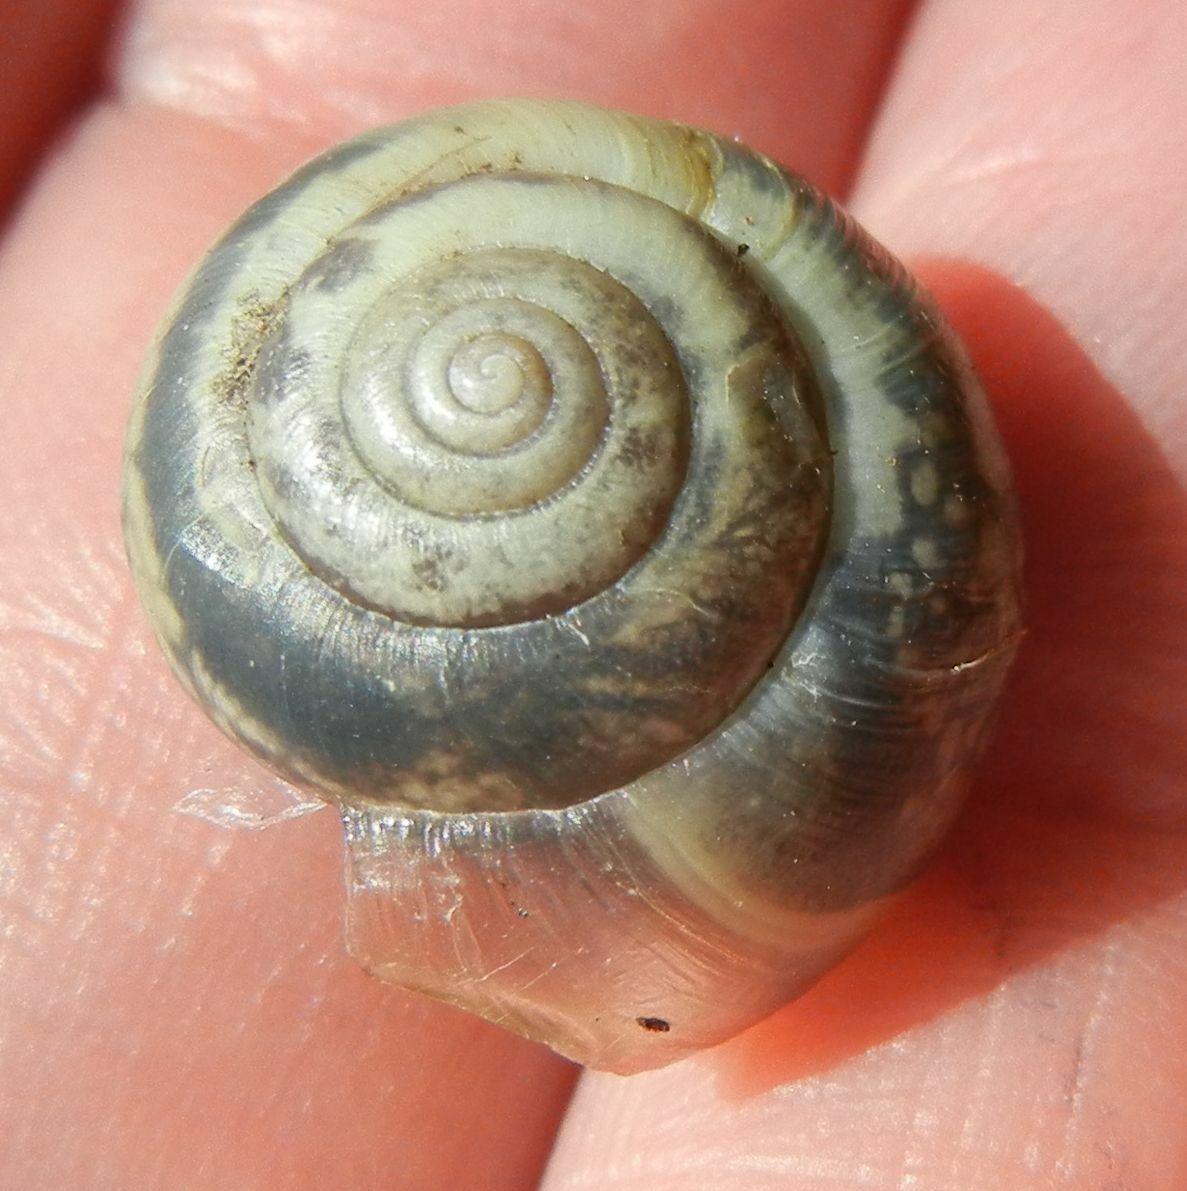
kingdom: Animalia
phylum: Mollusca
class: Gastropoda
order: Stylommatophora
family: Hygromiidae
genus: Monacha
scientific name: Monacha cantiana
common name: Kentish snail
